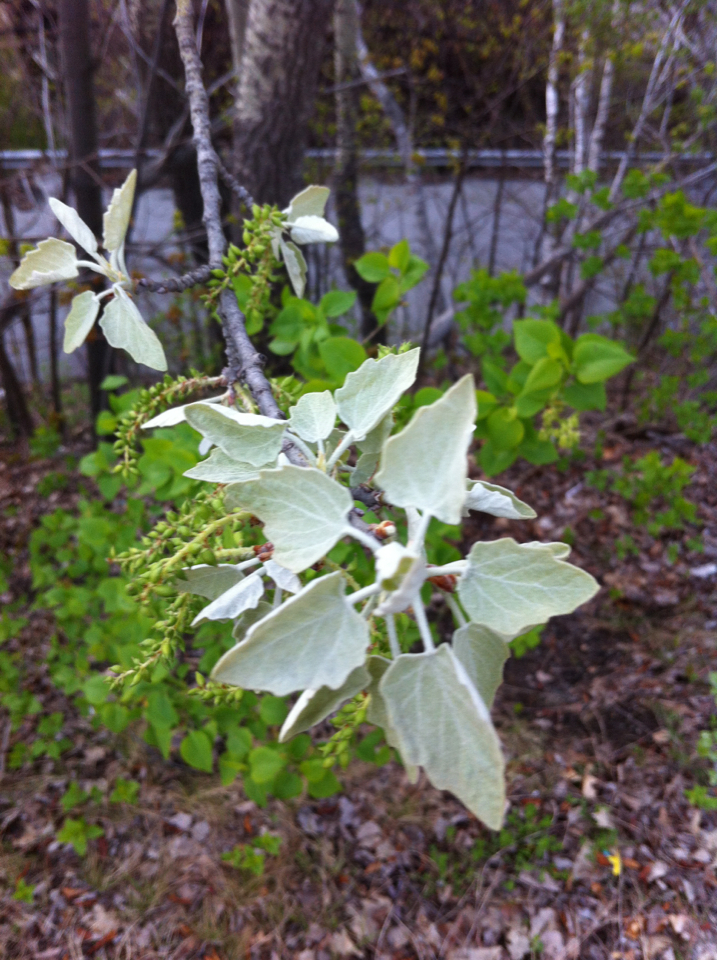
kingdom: Plantae
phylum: Tracheophyta
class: Magnoliopsida
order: Malpighiales
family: Salicaceae
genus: Populus
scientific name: Populus alba
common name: White poplar
